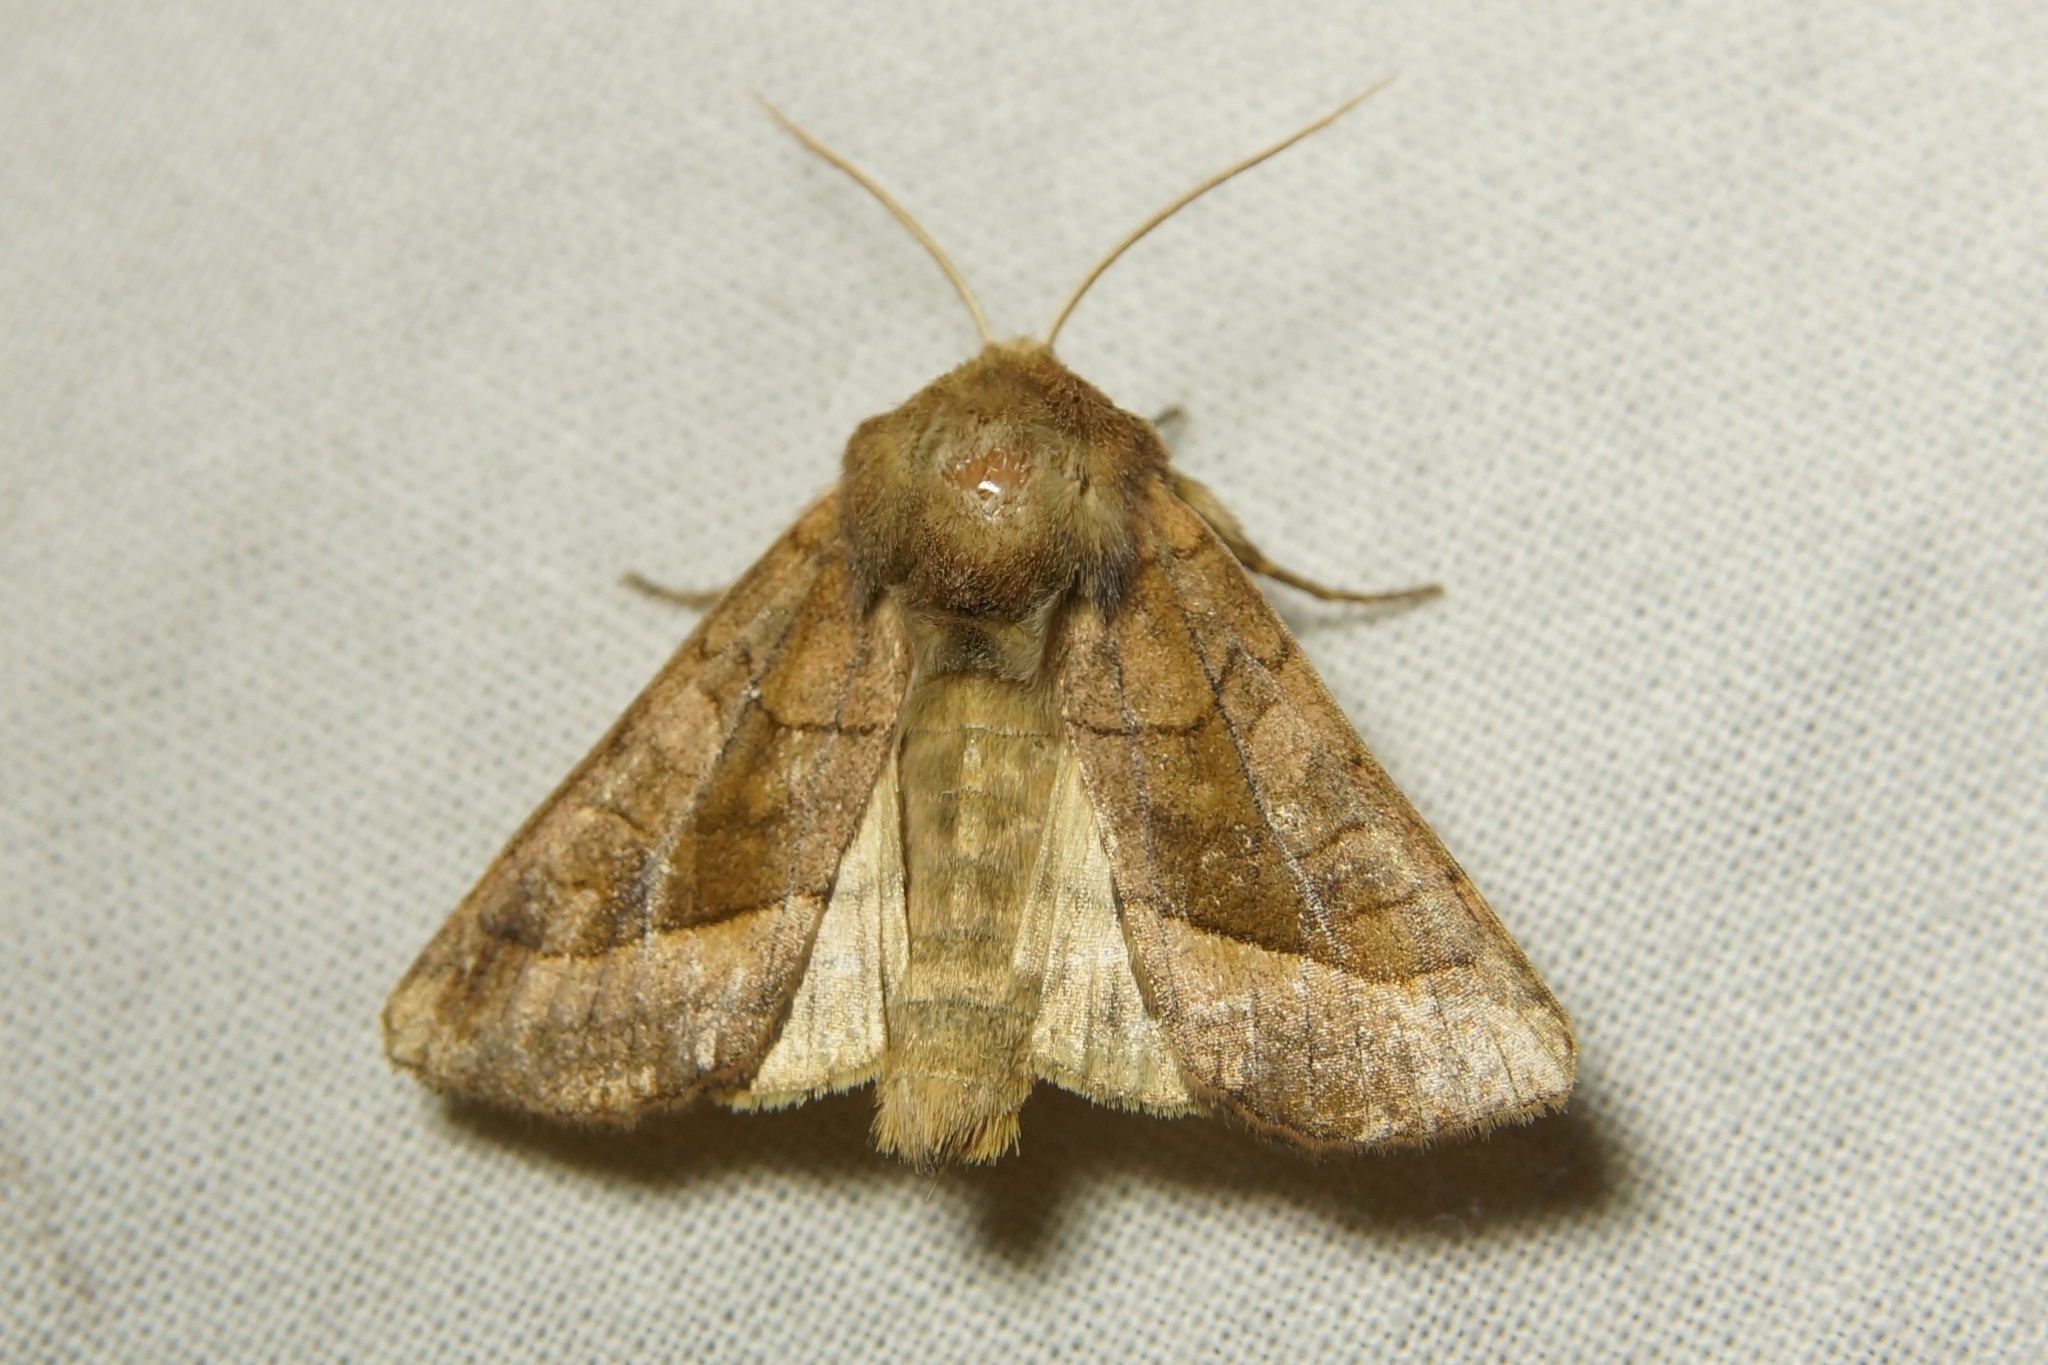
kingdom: Animalia
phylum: Arthropoda
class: Insecta
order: Lepidoptera
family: Noctuidae
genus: Hydraecia
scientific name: Hydraecia micacea
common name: Rosy rustic
